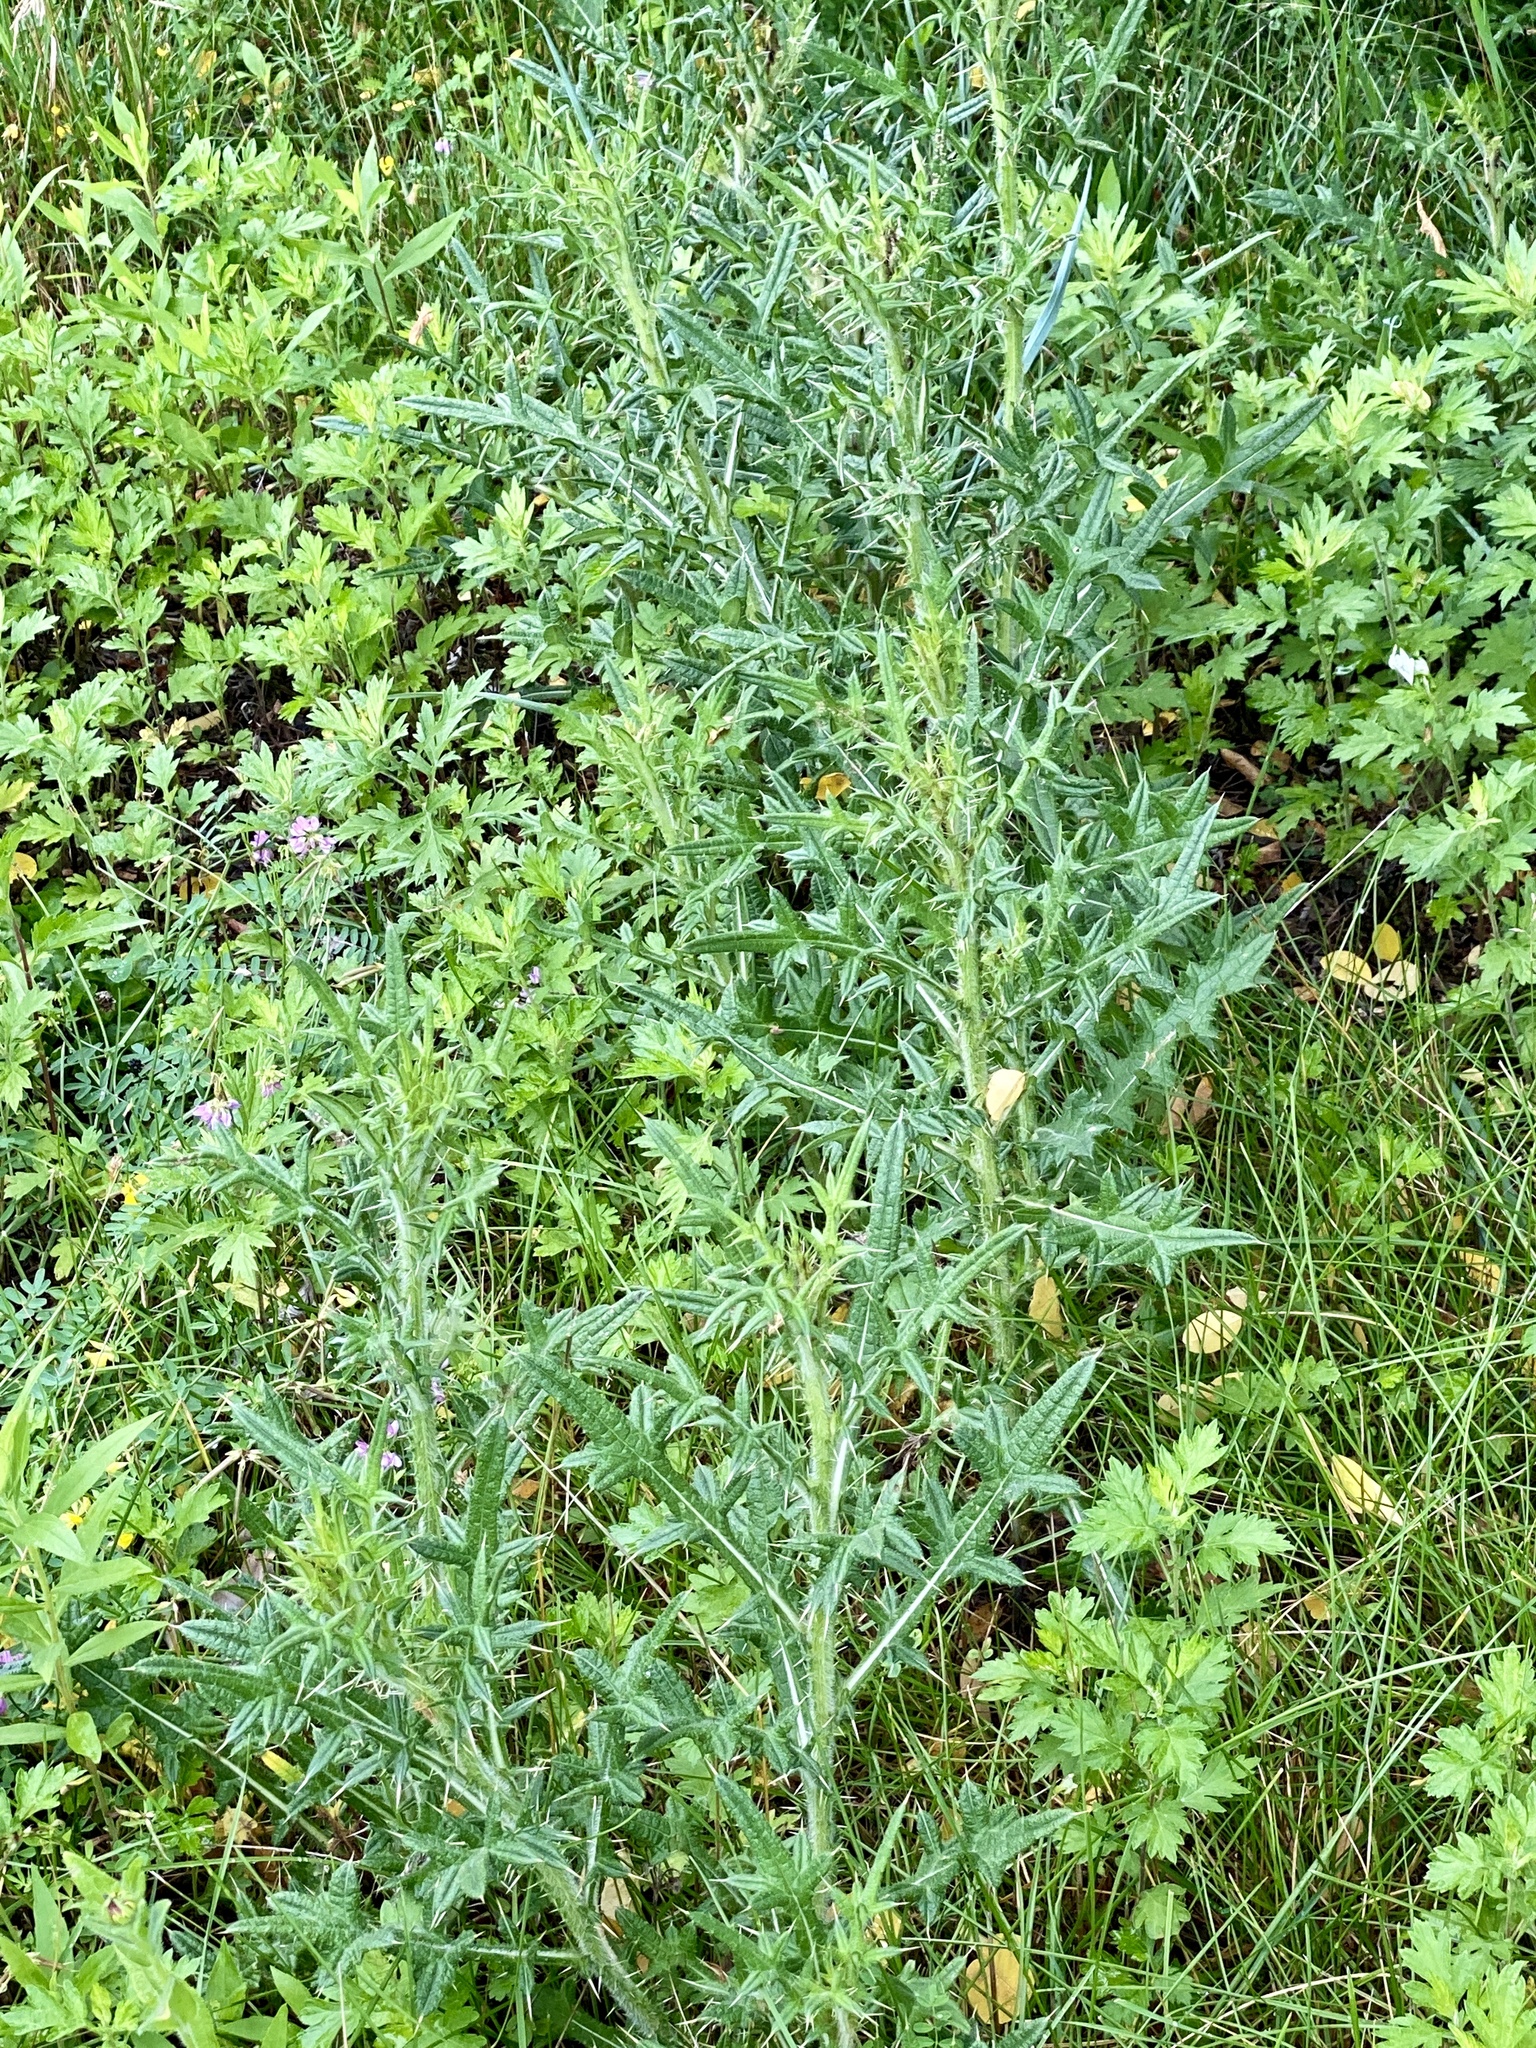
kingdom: Plantae
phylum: Tracheophyta
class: Magnoliopsida
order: Asterales
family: Asteraceae
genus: Cirsium
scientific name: Cirsium vulgare
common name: Bull thistle
